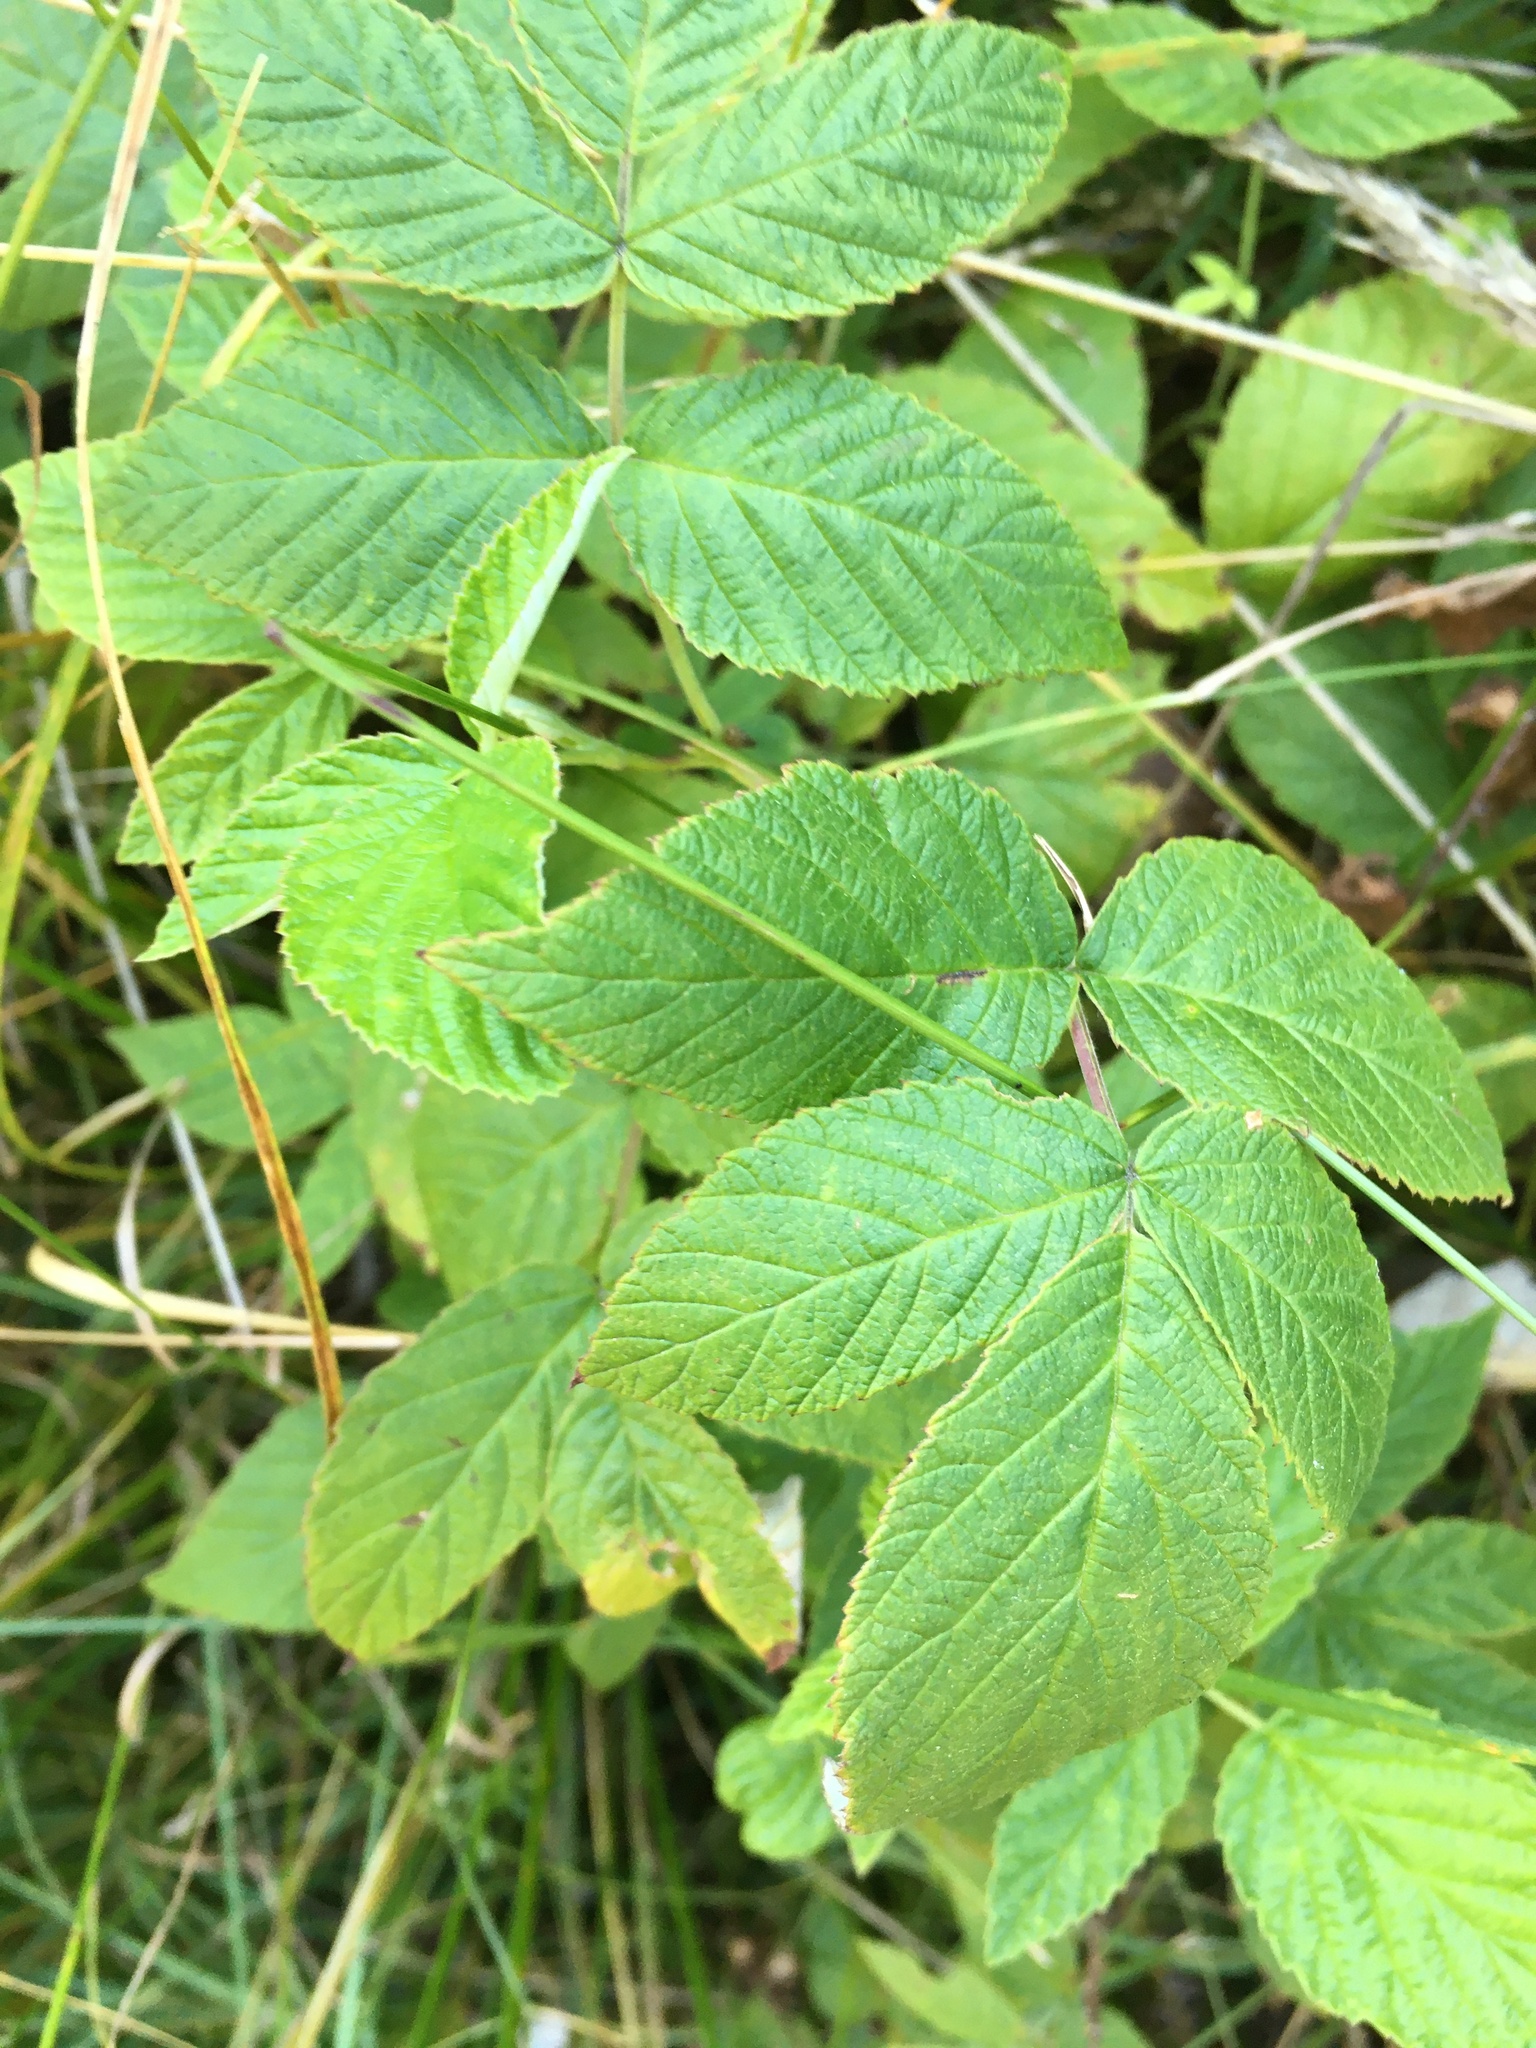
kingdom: Plantae
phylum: Tracheophyta
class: Magnoliopsida
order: Rosales
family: Rosaceae
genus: Rubus
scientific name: Rubus idaeus
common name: Raspberry
